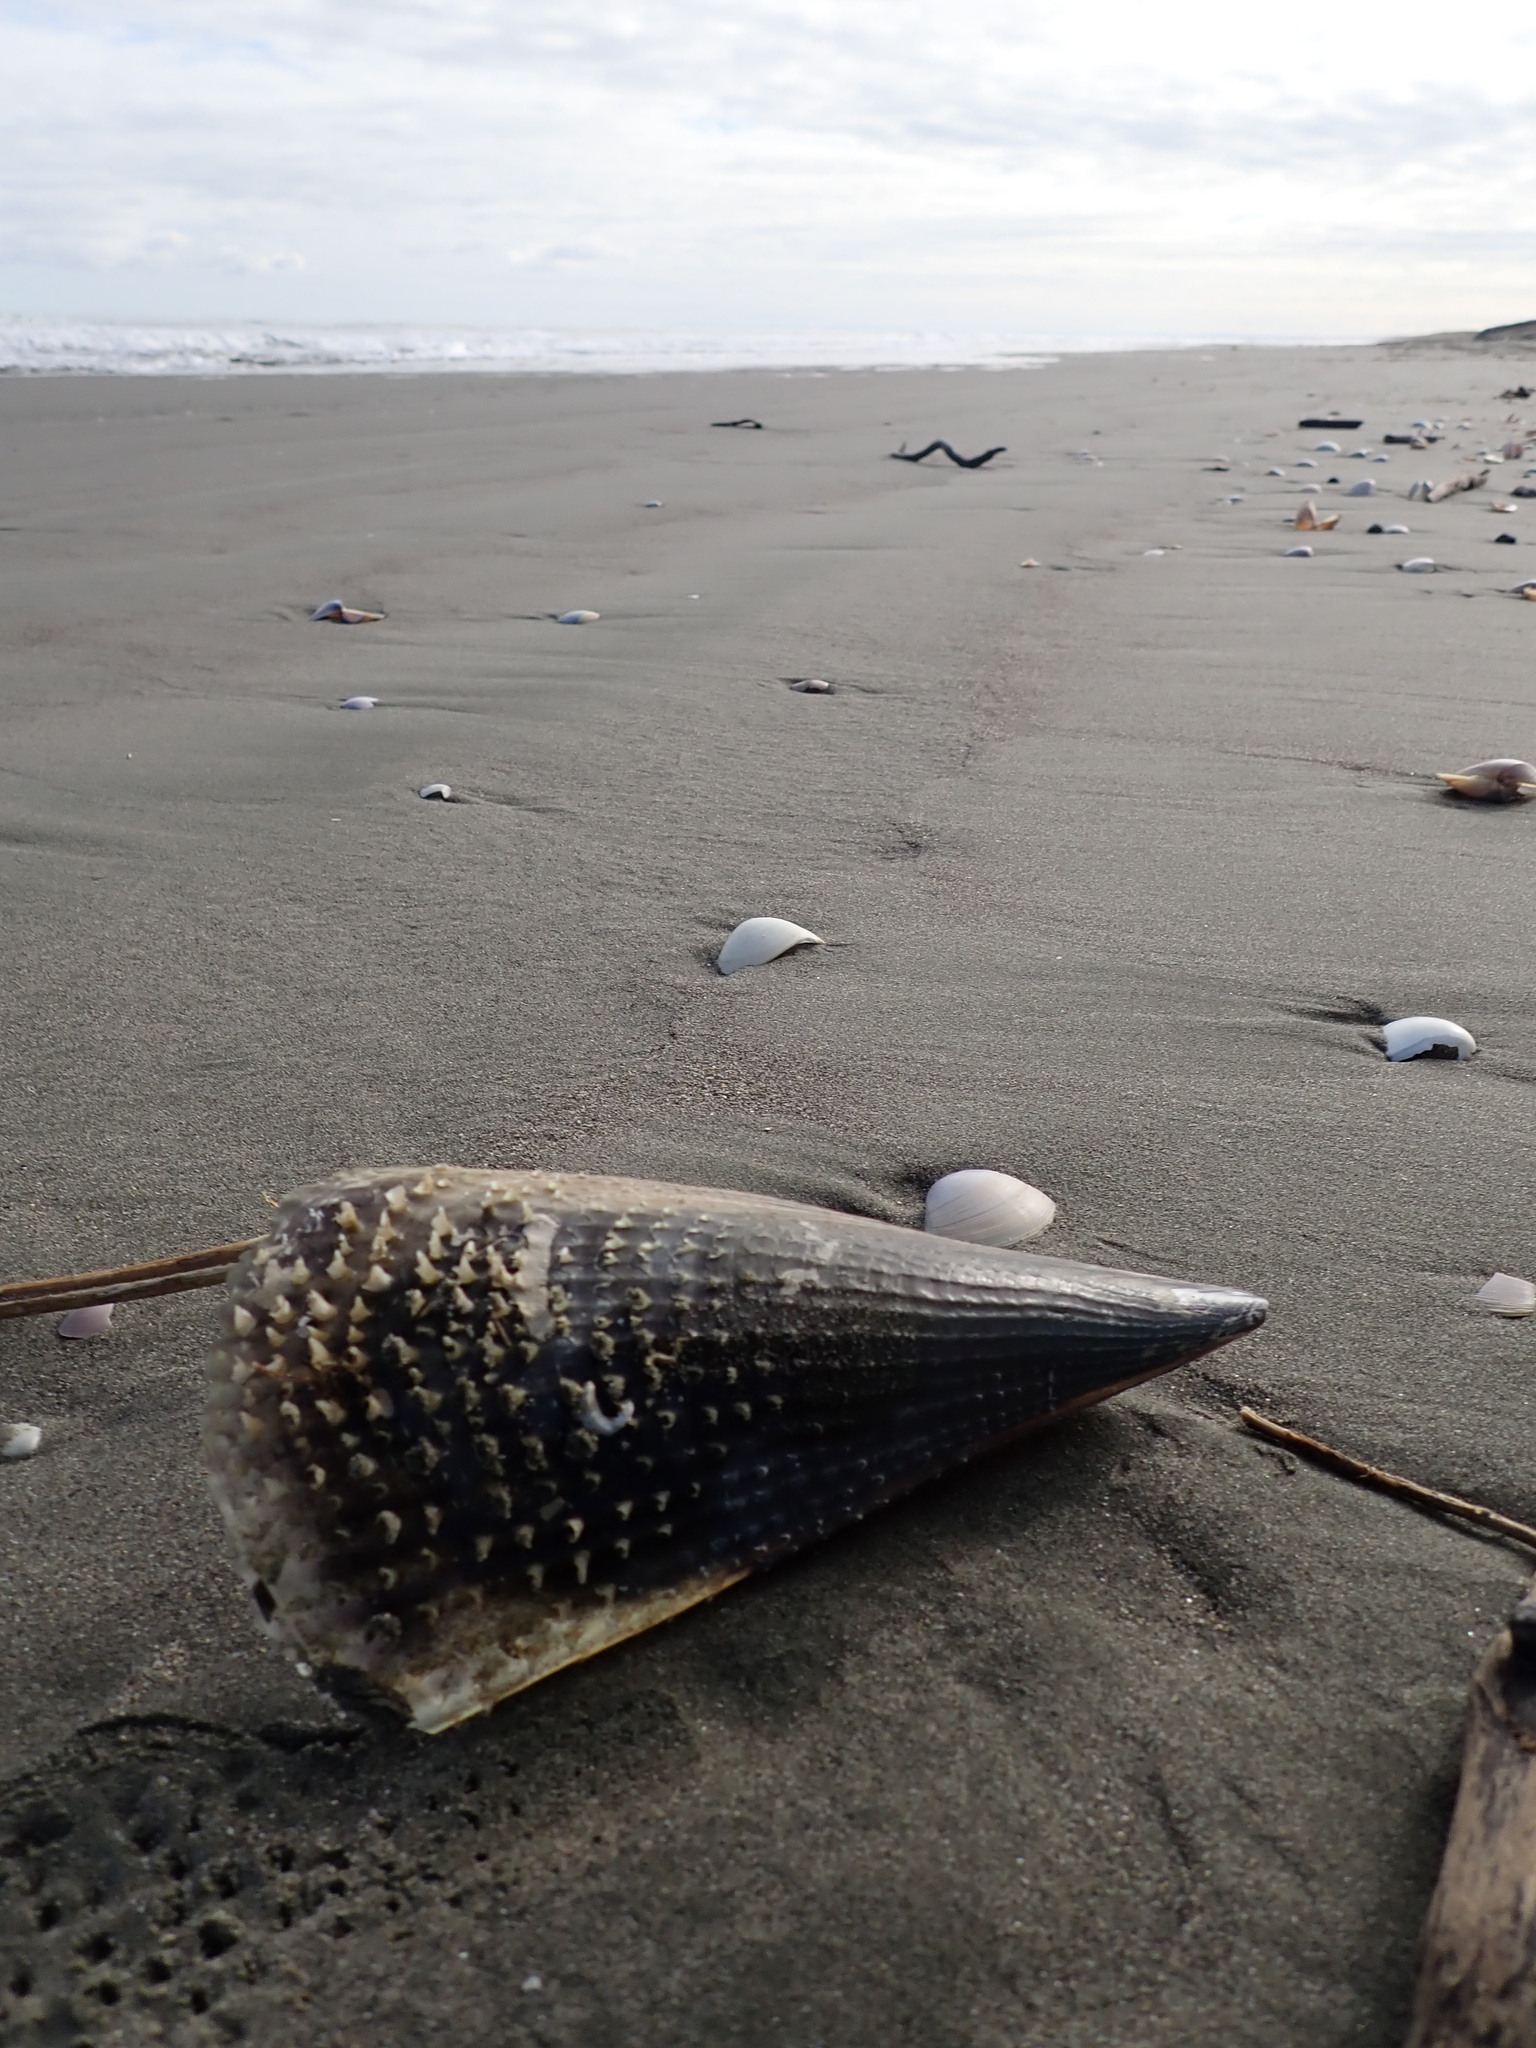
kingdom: Animalia
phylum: Mollusca
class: Bivalvia
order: Ostreida
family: Pinnidae
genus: Atrina
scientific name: Atrina zelandica
